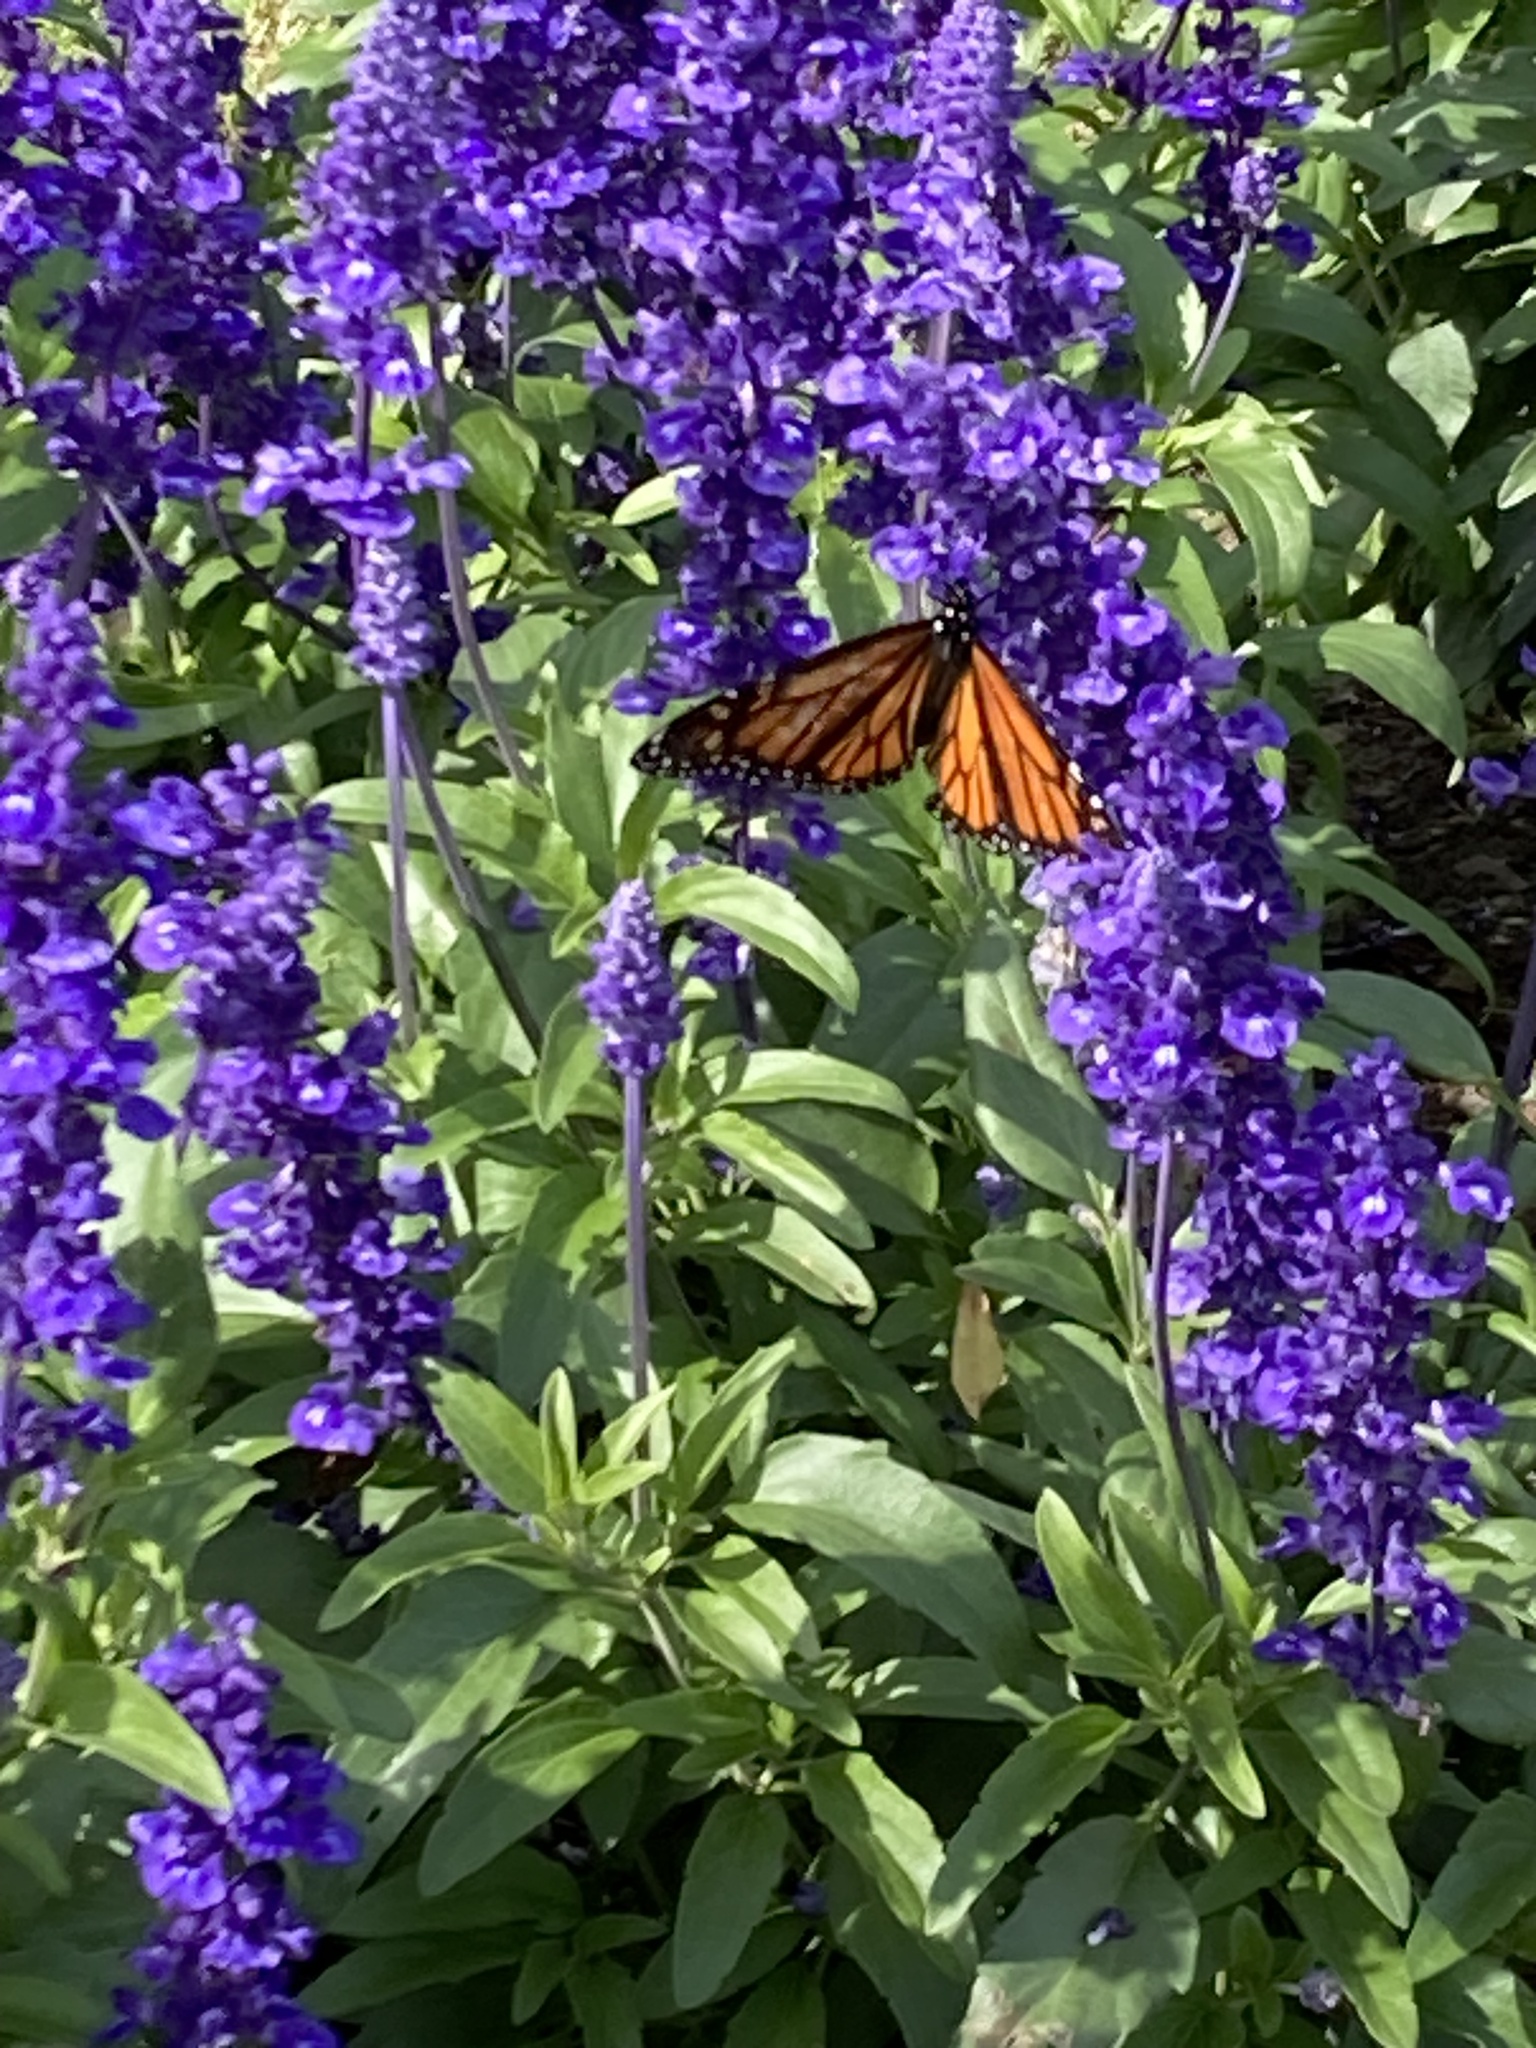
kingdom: Animalia
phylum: Arthropoda
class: Insecta
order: Lepidoptera
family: Nymphalidae
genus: Danaus
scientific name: Danaus plexippus
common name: Monarch
